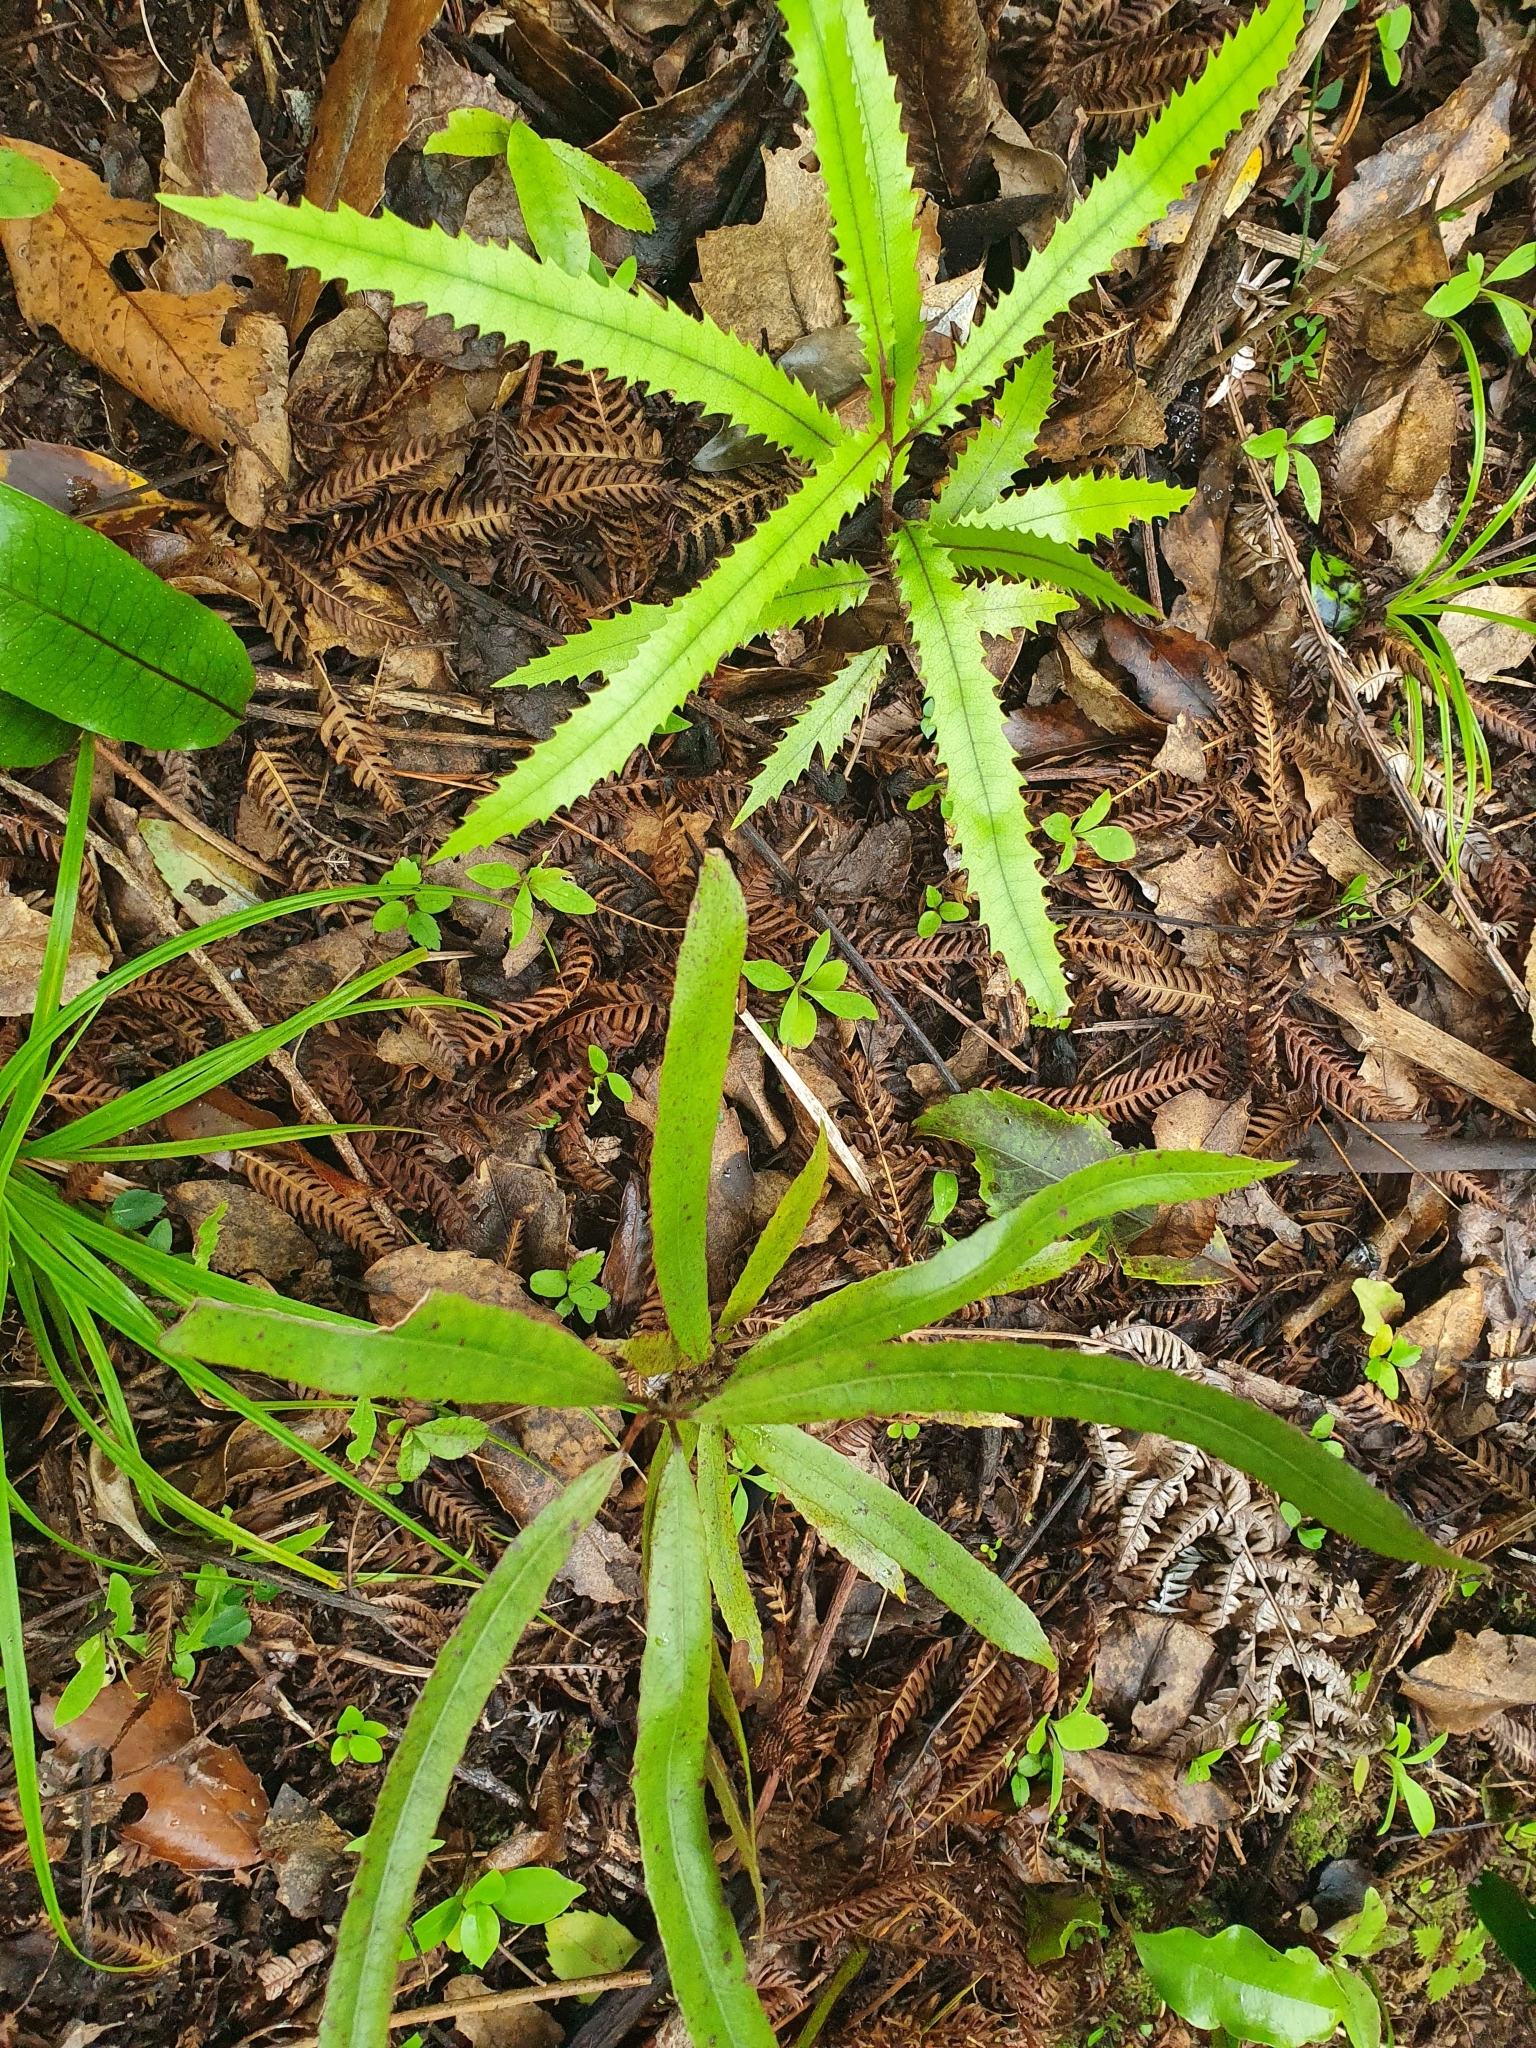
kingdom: Plantae
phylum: Tracheophyta
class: Magnoliopsida
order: Proteales
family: Proteaceae
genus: Knightia
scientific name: Knightia excelsa
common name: New zealand-honeysuckle
